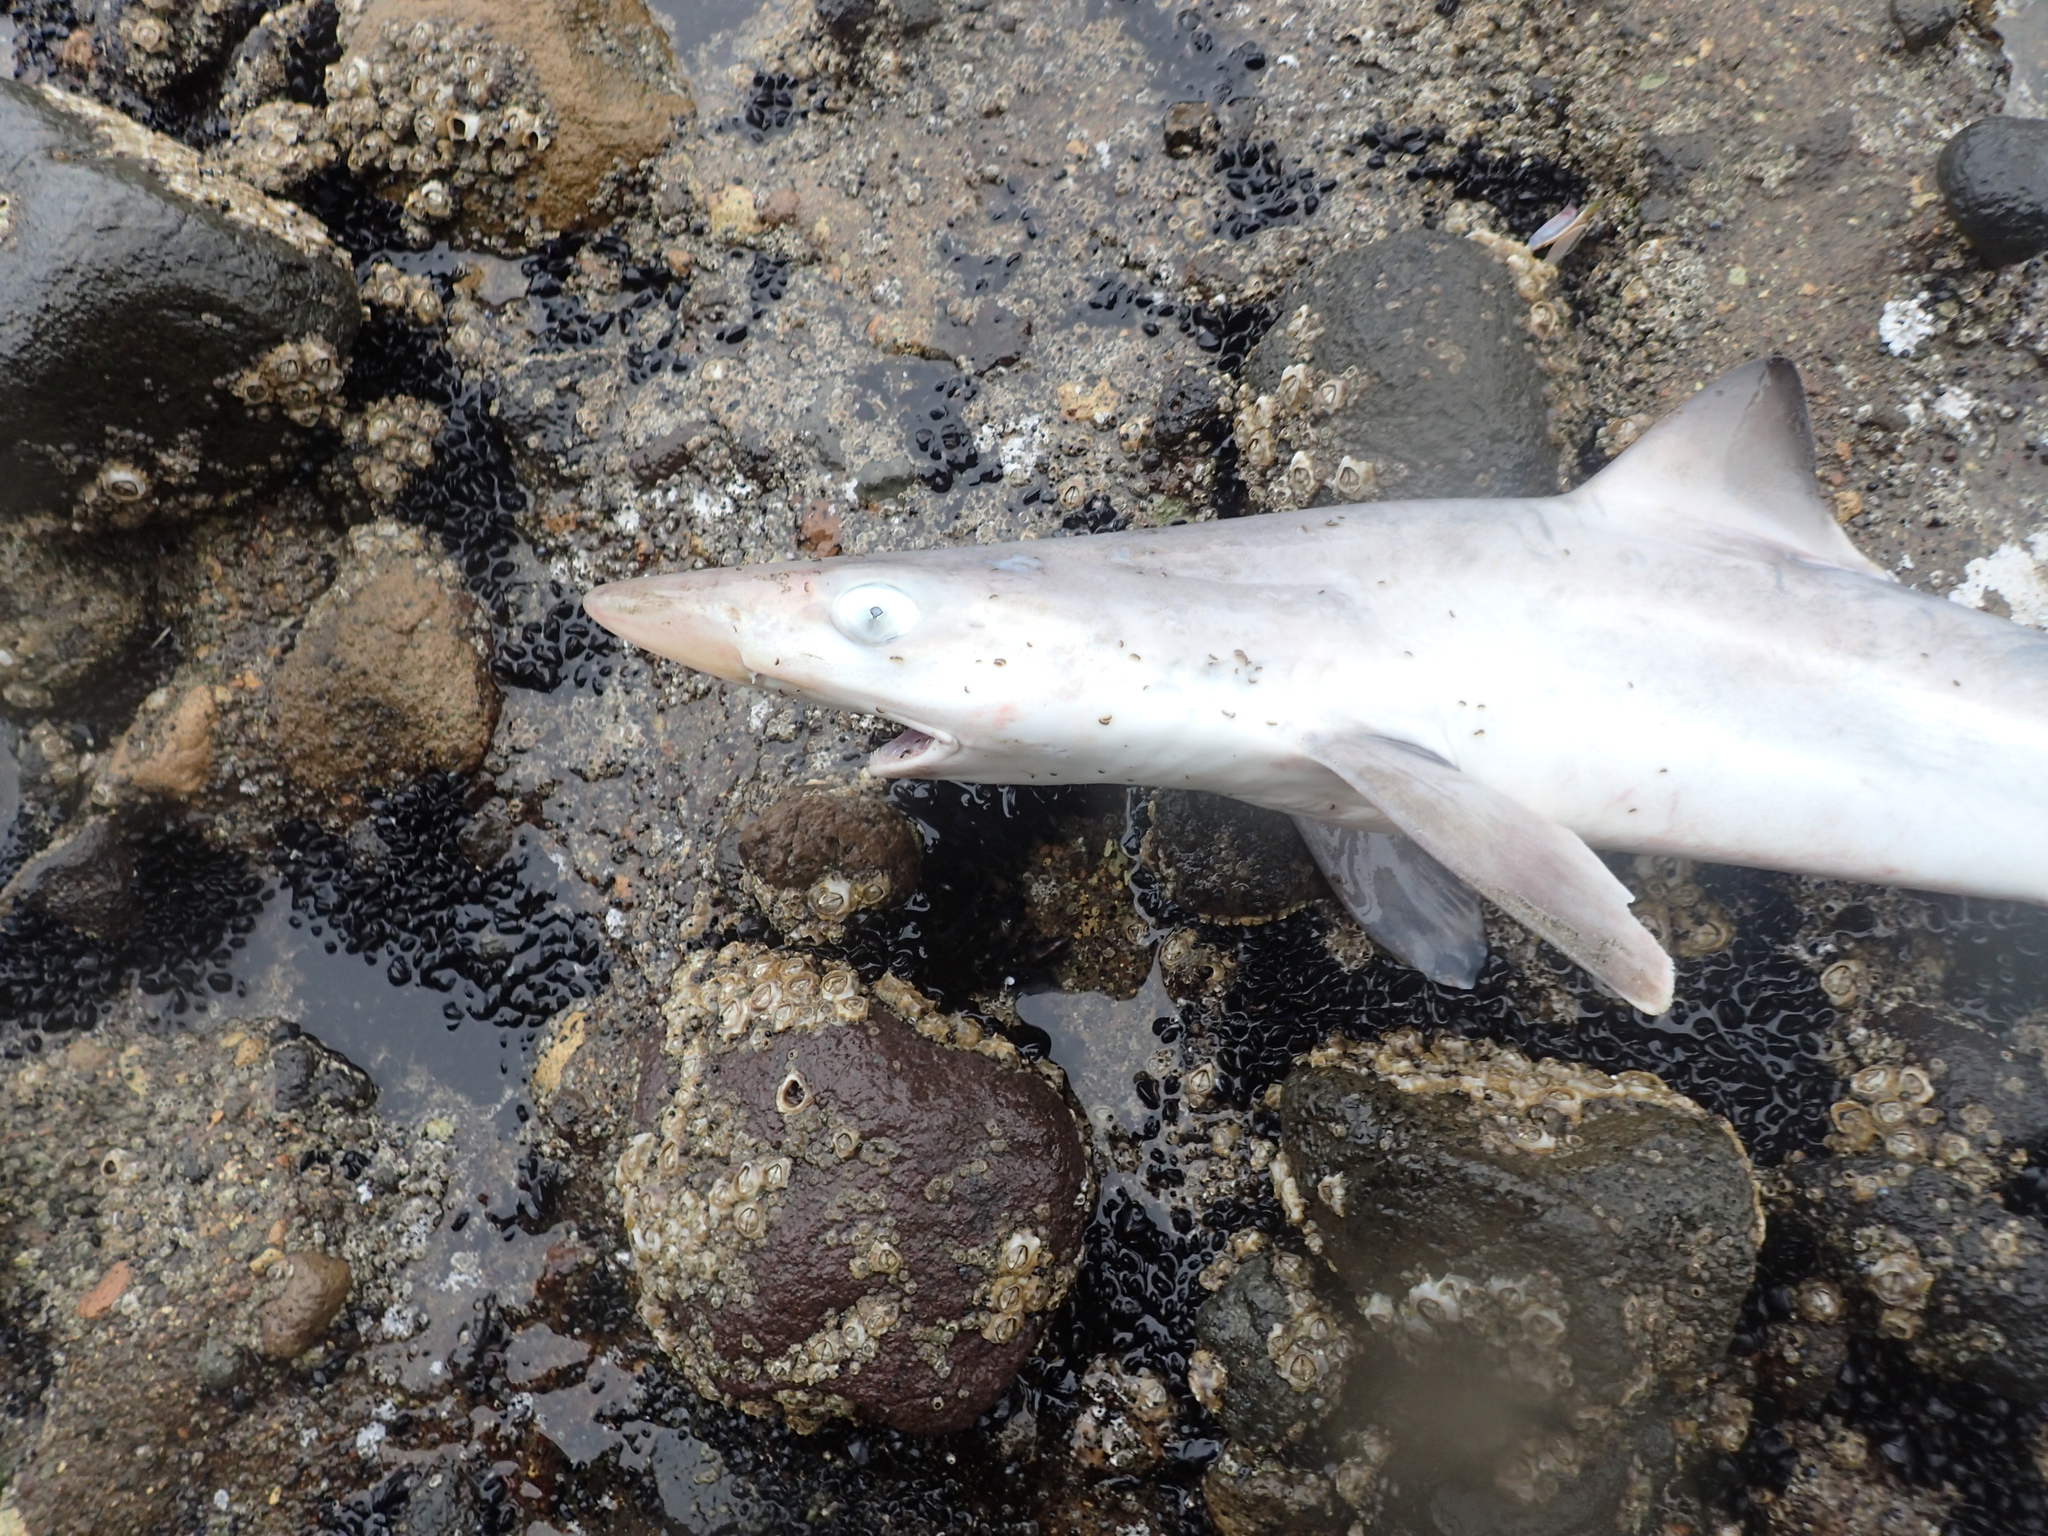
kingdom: Animalia
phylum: Chordata
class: Elasmobranchii
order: Carcharhiniformes
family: Triakidae
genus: Galeorhinus
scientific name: Galeorhinus galeus
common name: Tope
